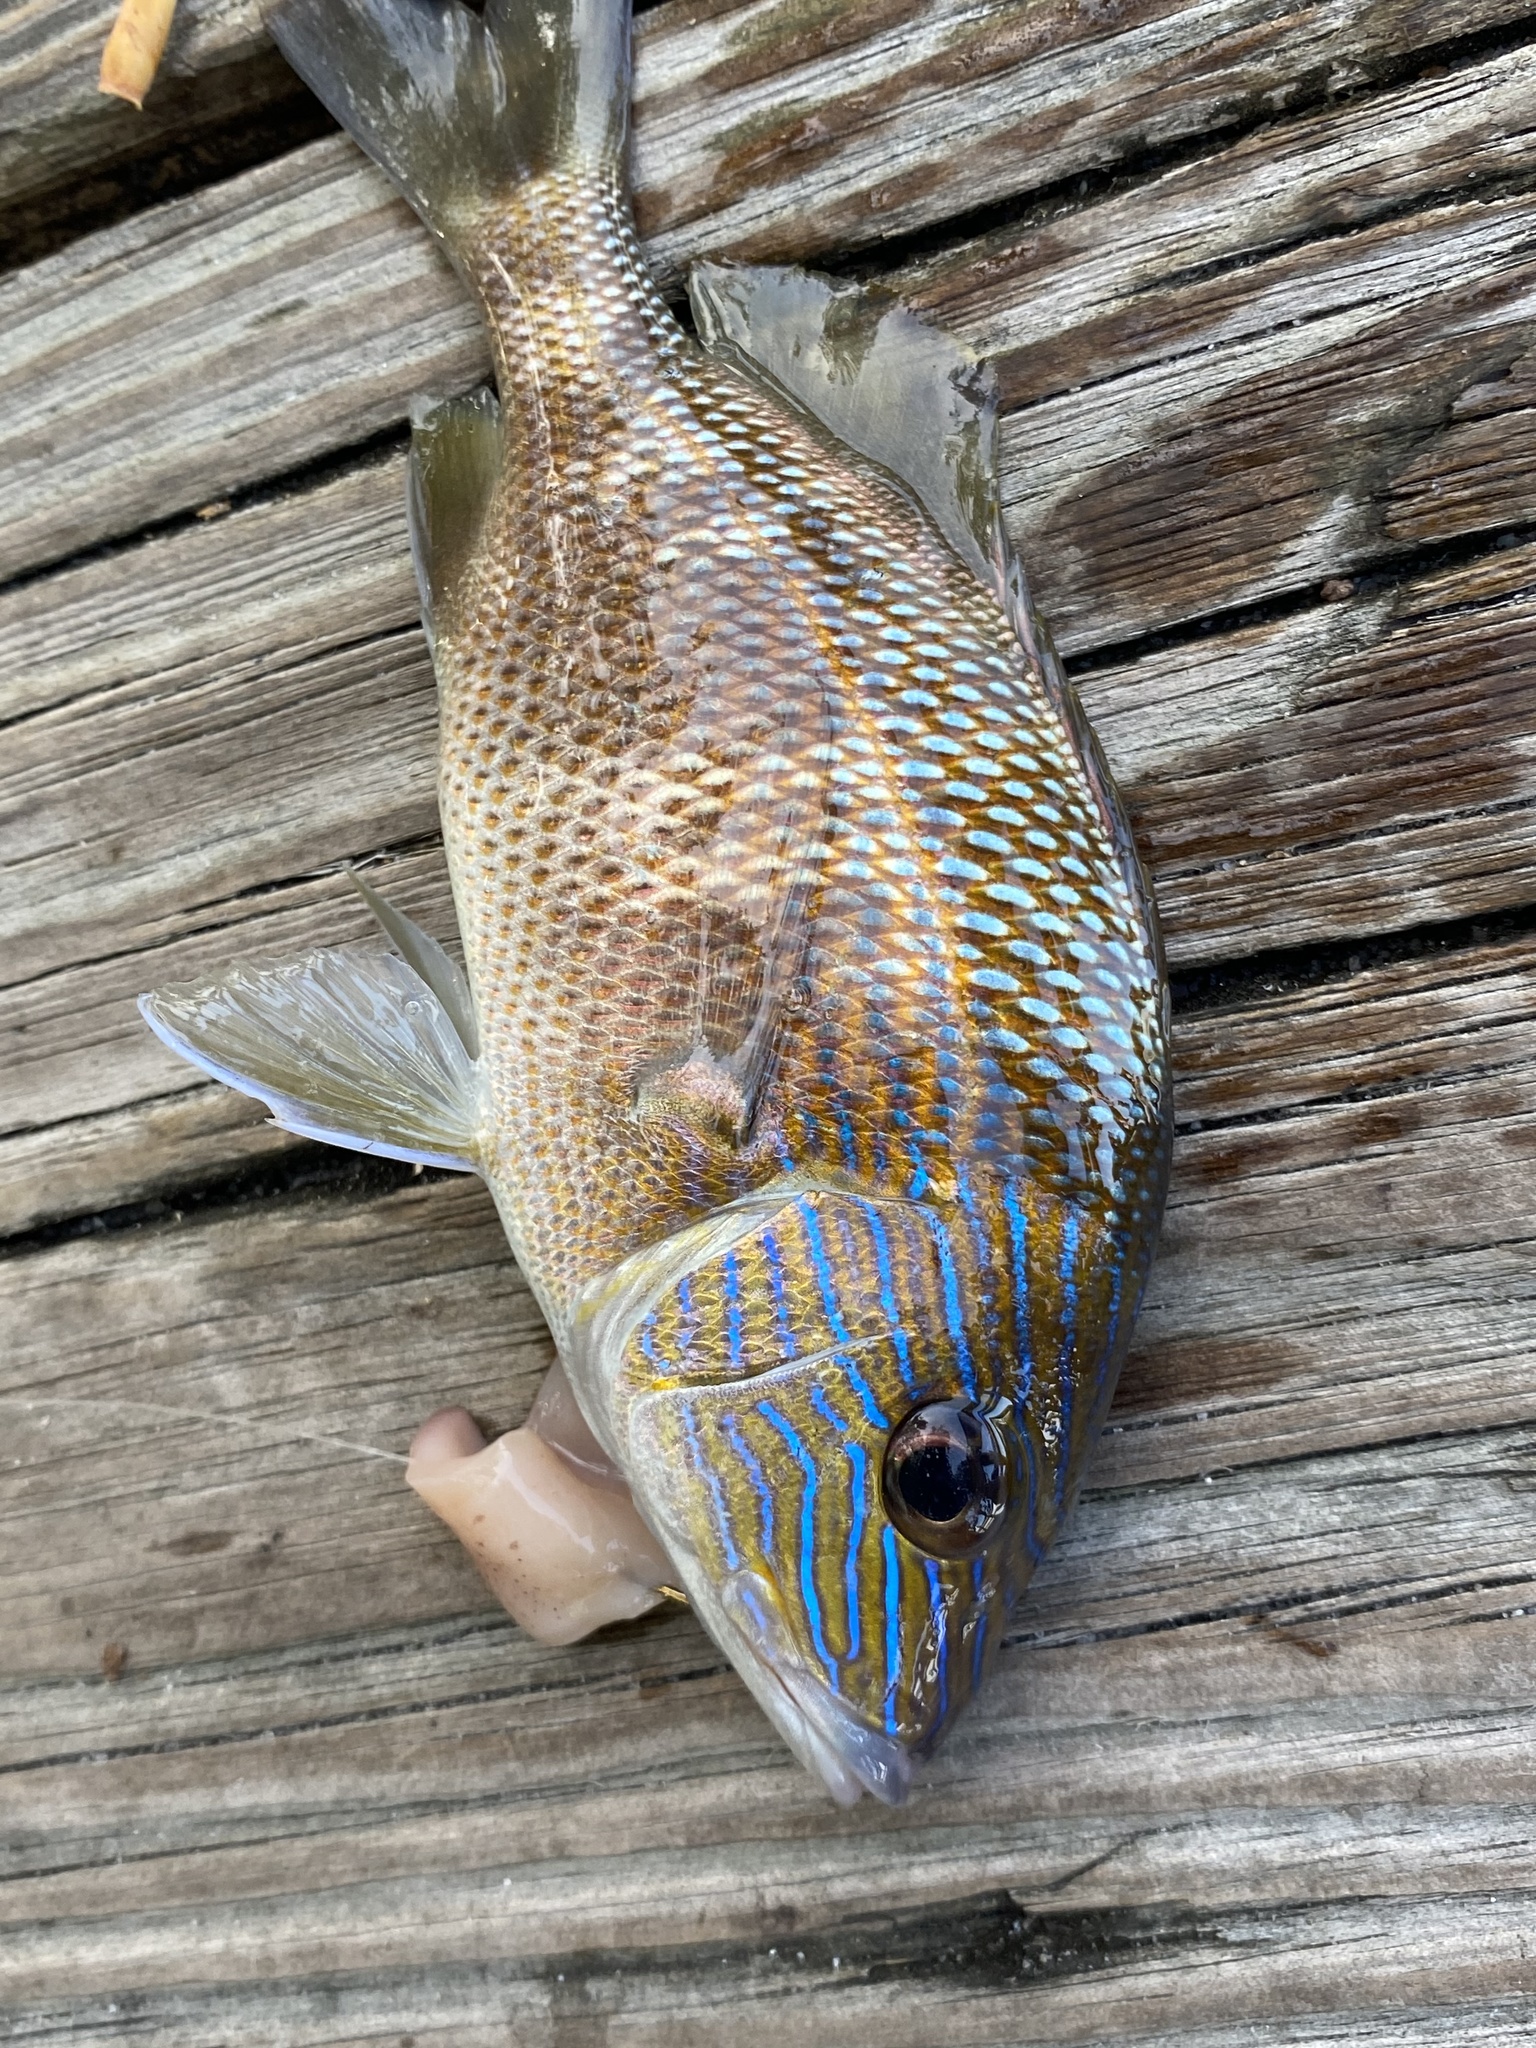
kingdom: Animalia
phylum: Chordata
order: Perciformes
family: Haemulidae
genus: Haemulon
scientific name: Haemulon plumierii
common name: White grunt
